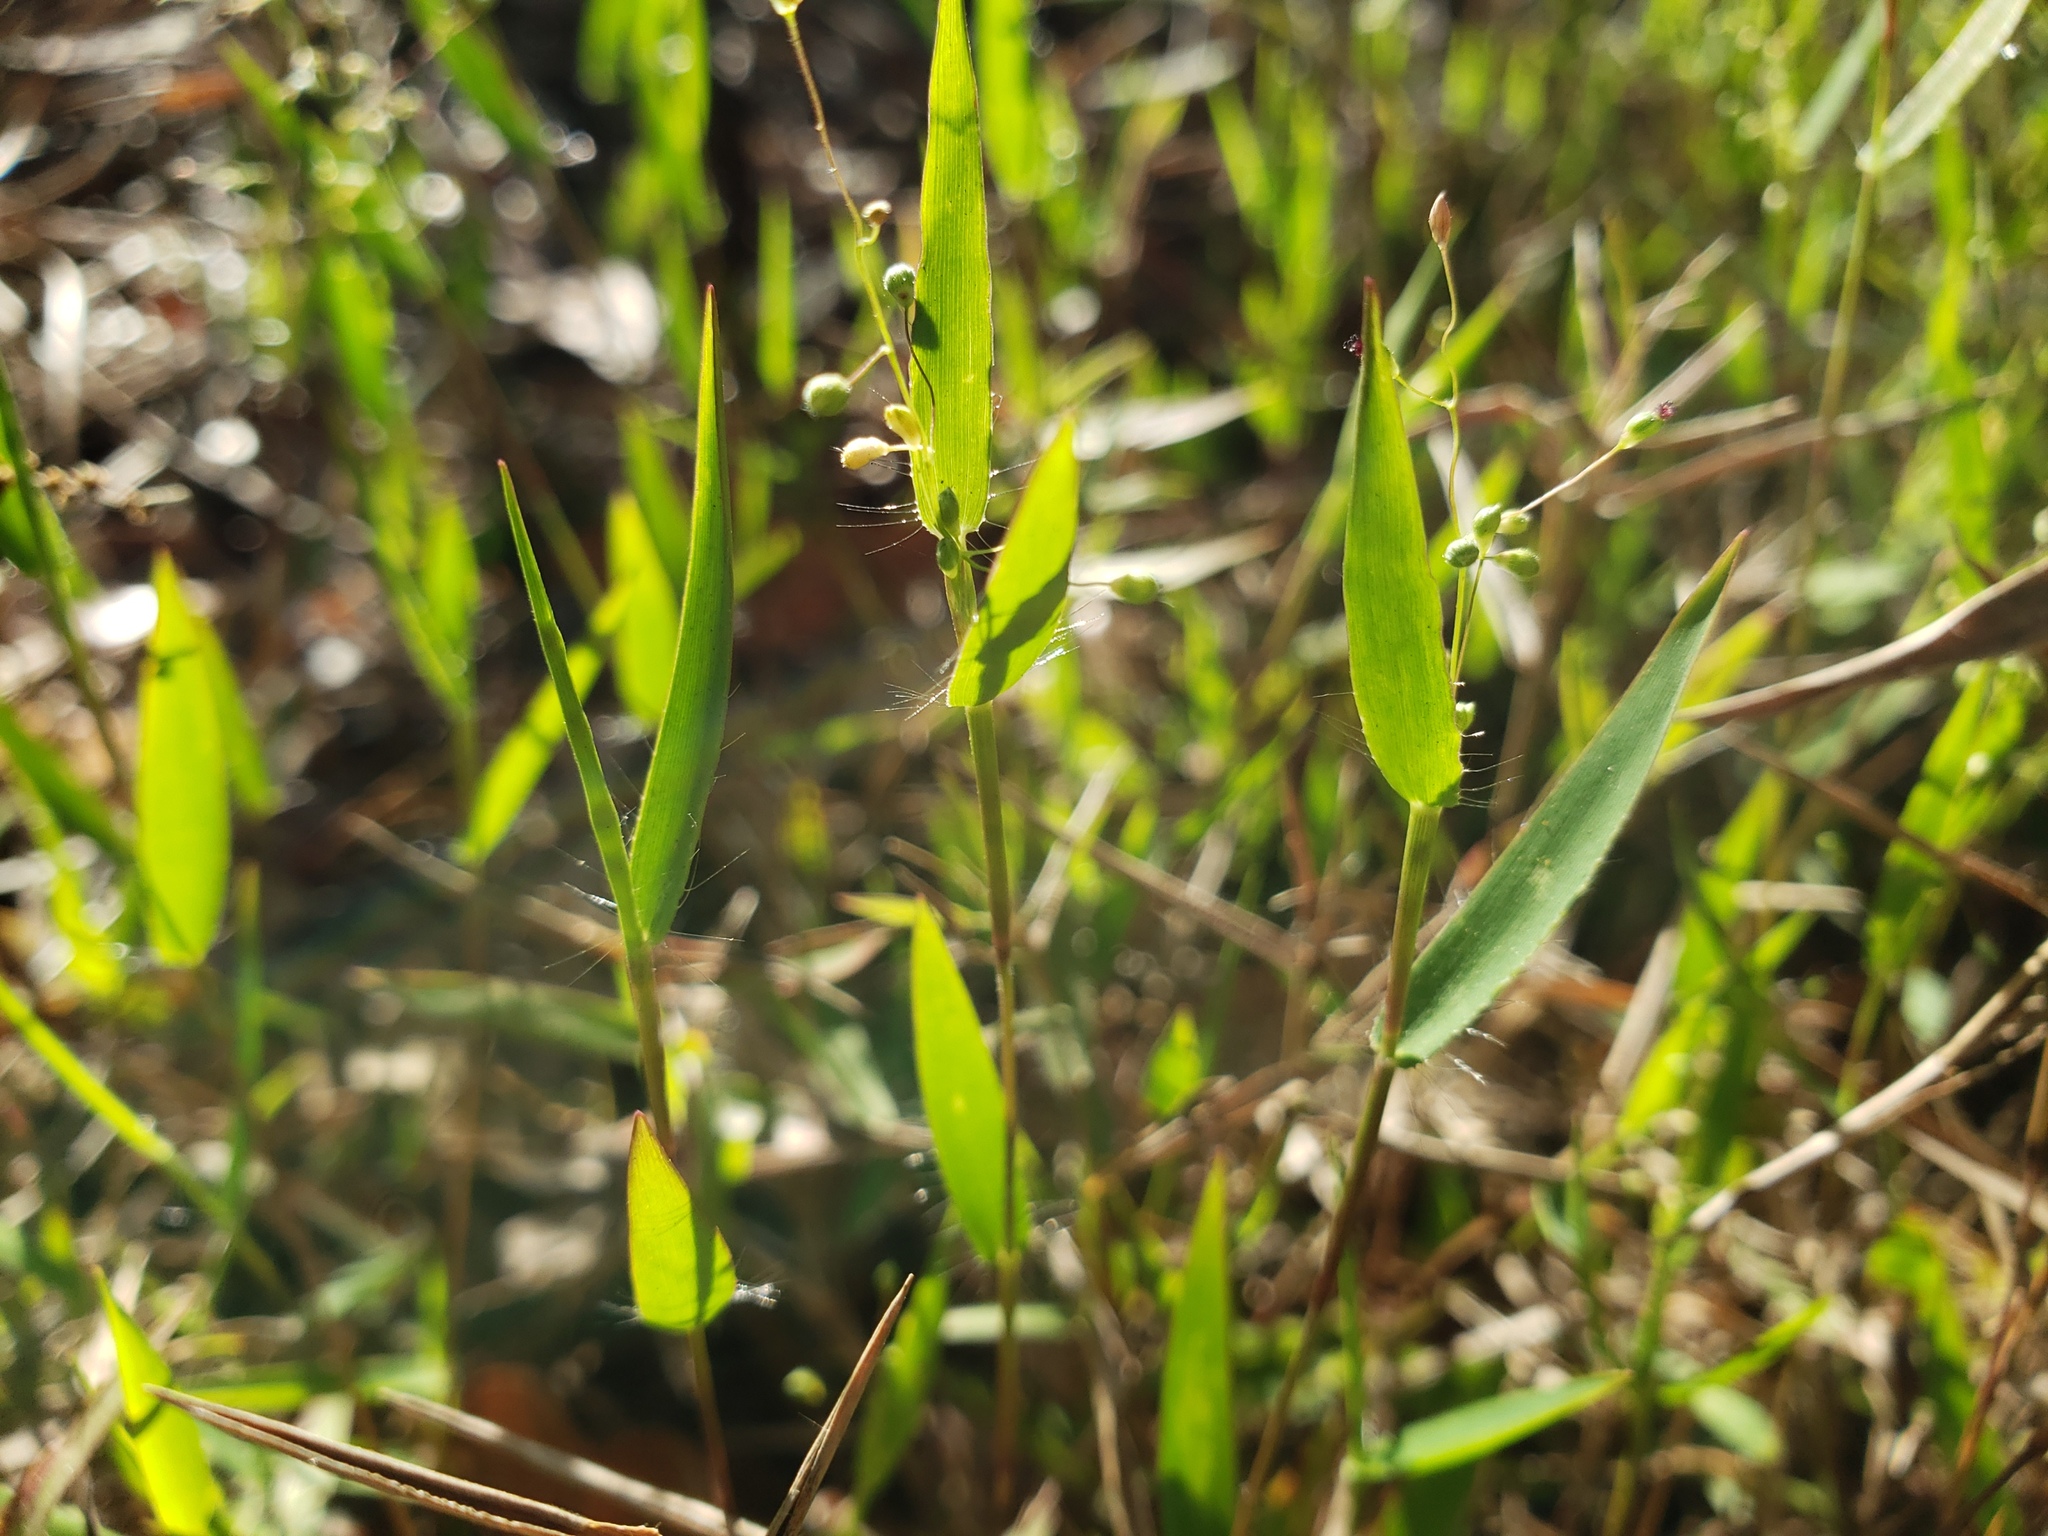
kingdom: Plantae
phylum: Tracheophyta
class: Liliopsida
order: Poales
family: Poaceae
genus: Dichanthelium
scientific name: Dichanthelium portoricense
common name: American panicgrass
